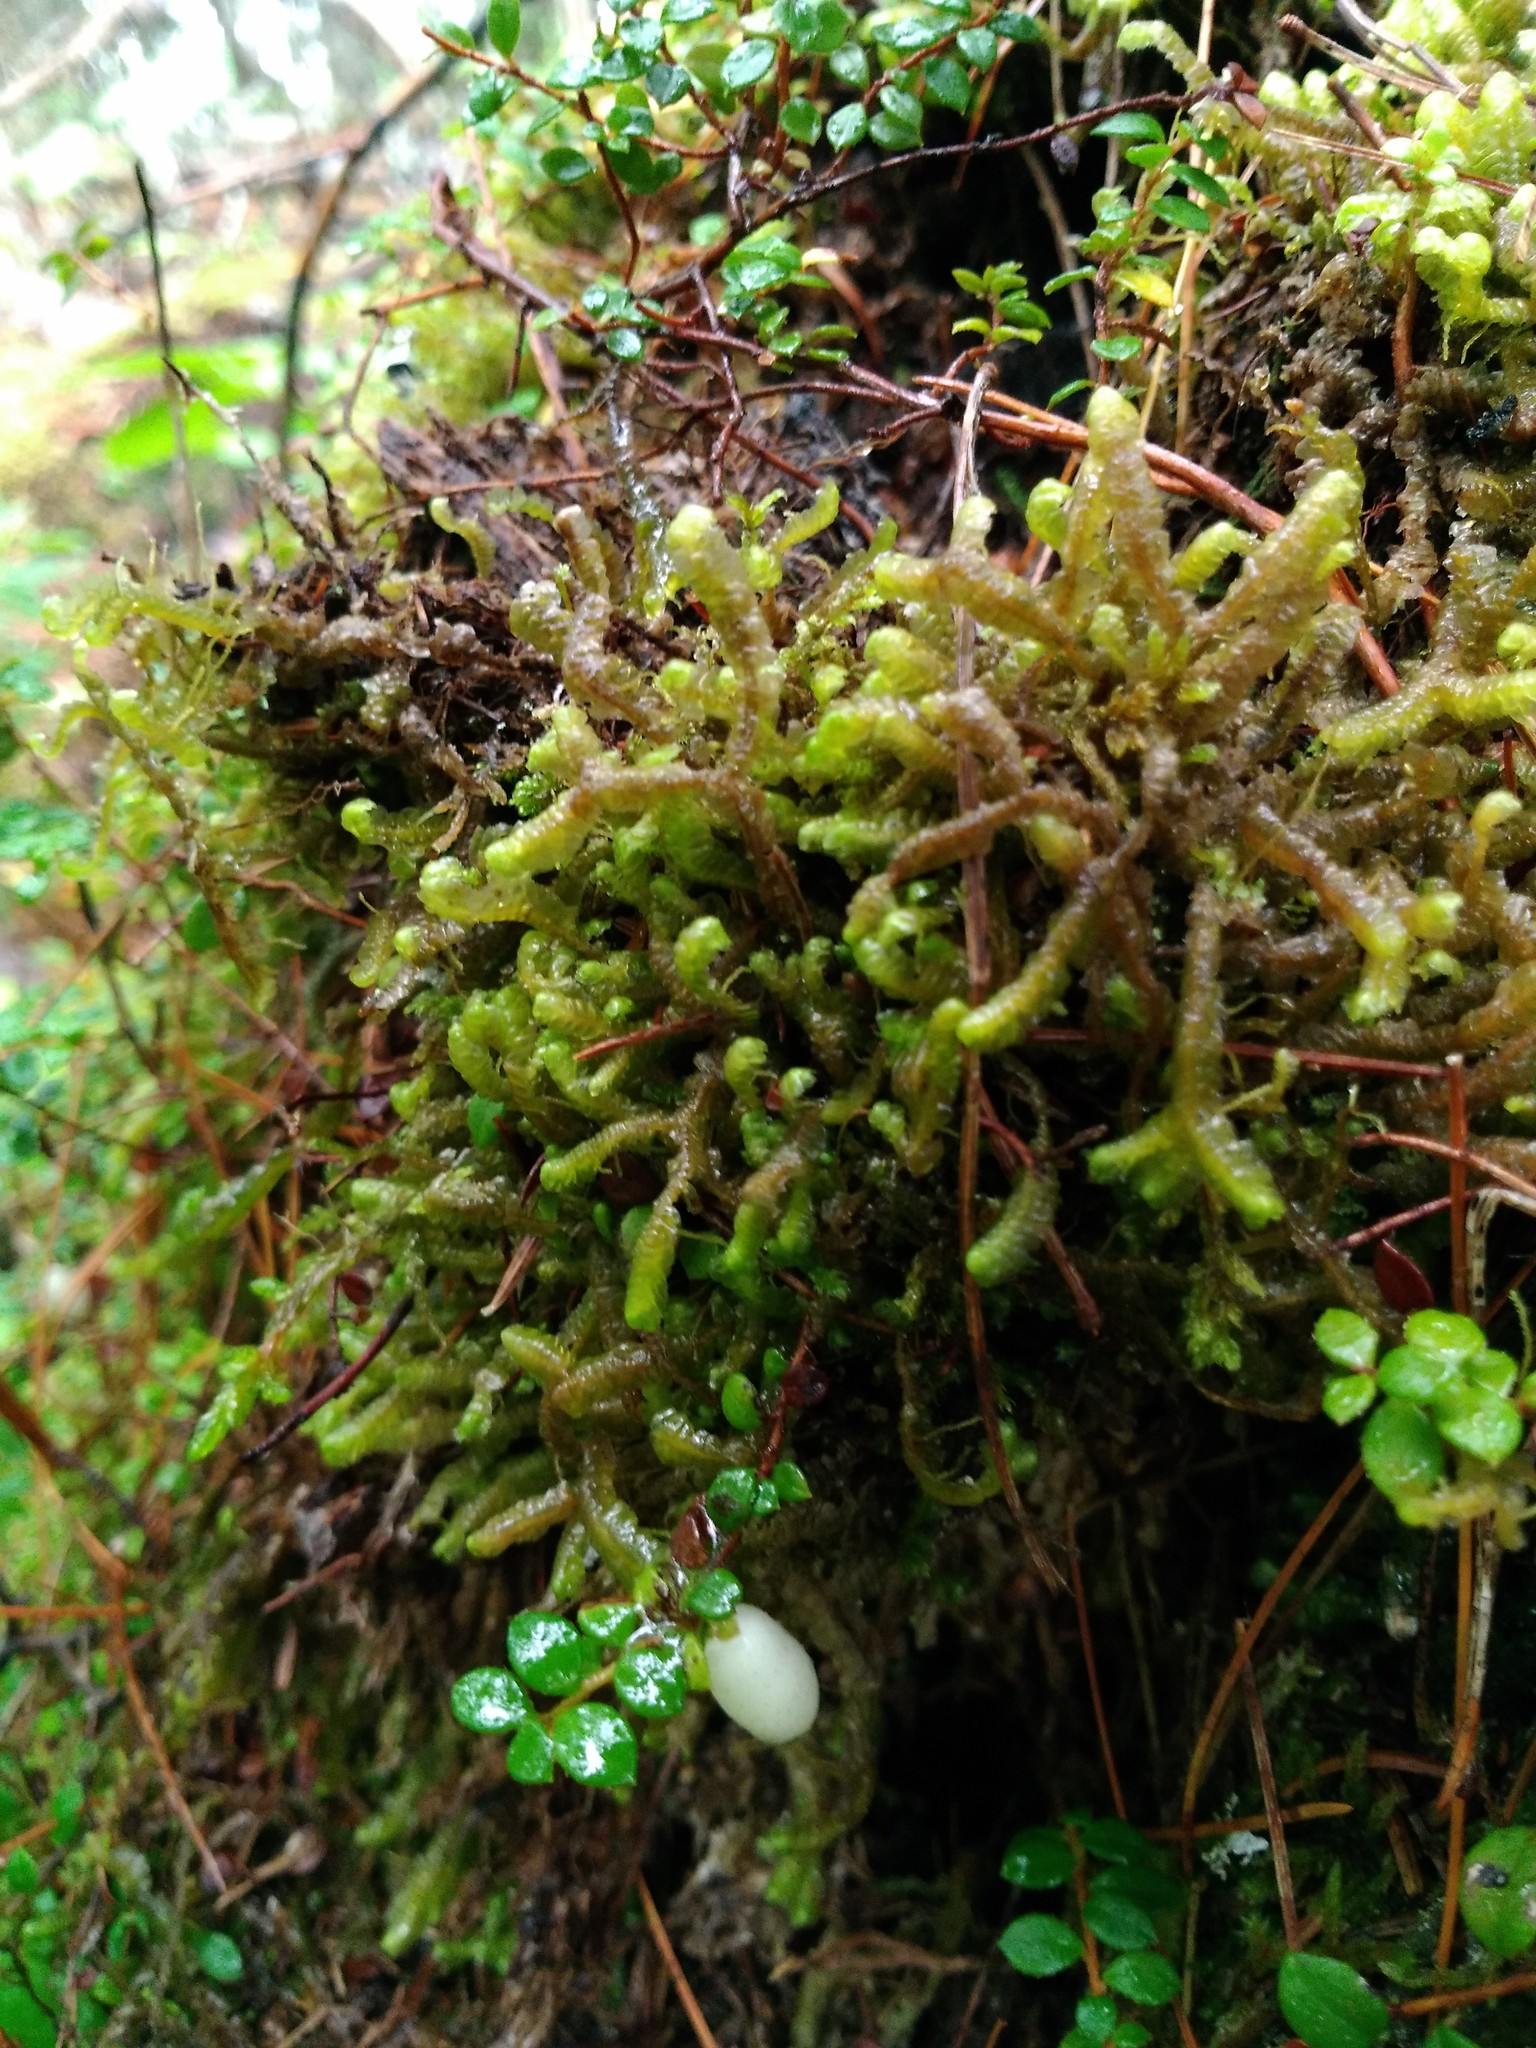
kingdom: Plantae
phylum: Marchantiophyta
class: Jungermanniopsida
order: Jungermanniales
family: Lepidoziaceae
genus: Bazzania
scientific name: Bazzania trilobata
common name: Three-lobed whipwort
